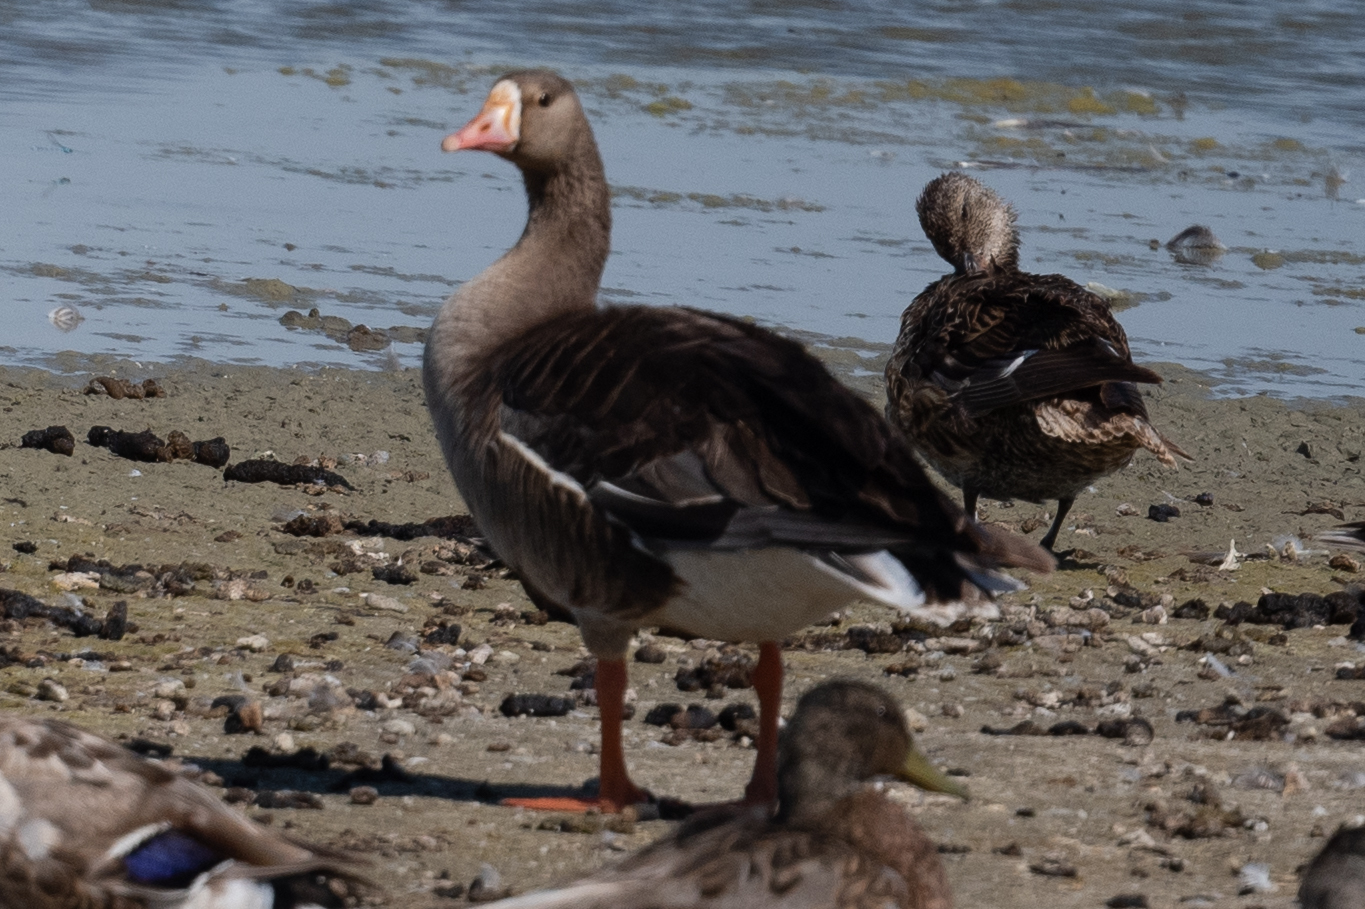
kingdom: Animalia
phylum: Chordata
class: Aves
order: Anseriformes
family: Anatidae
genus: Anser
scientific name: Anser albifrons
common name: Greater white-fronted goose
